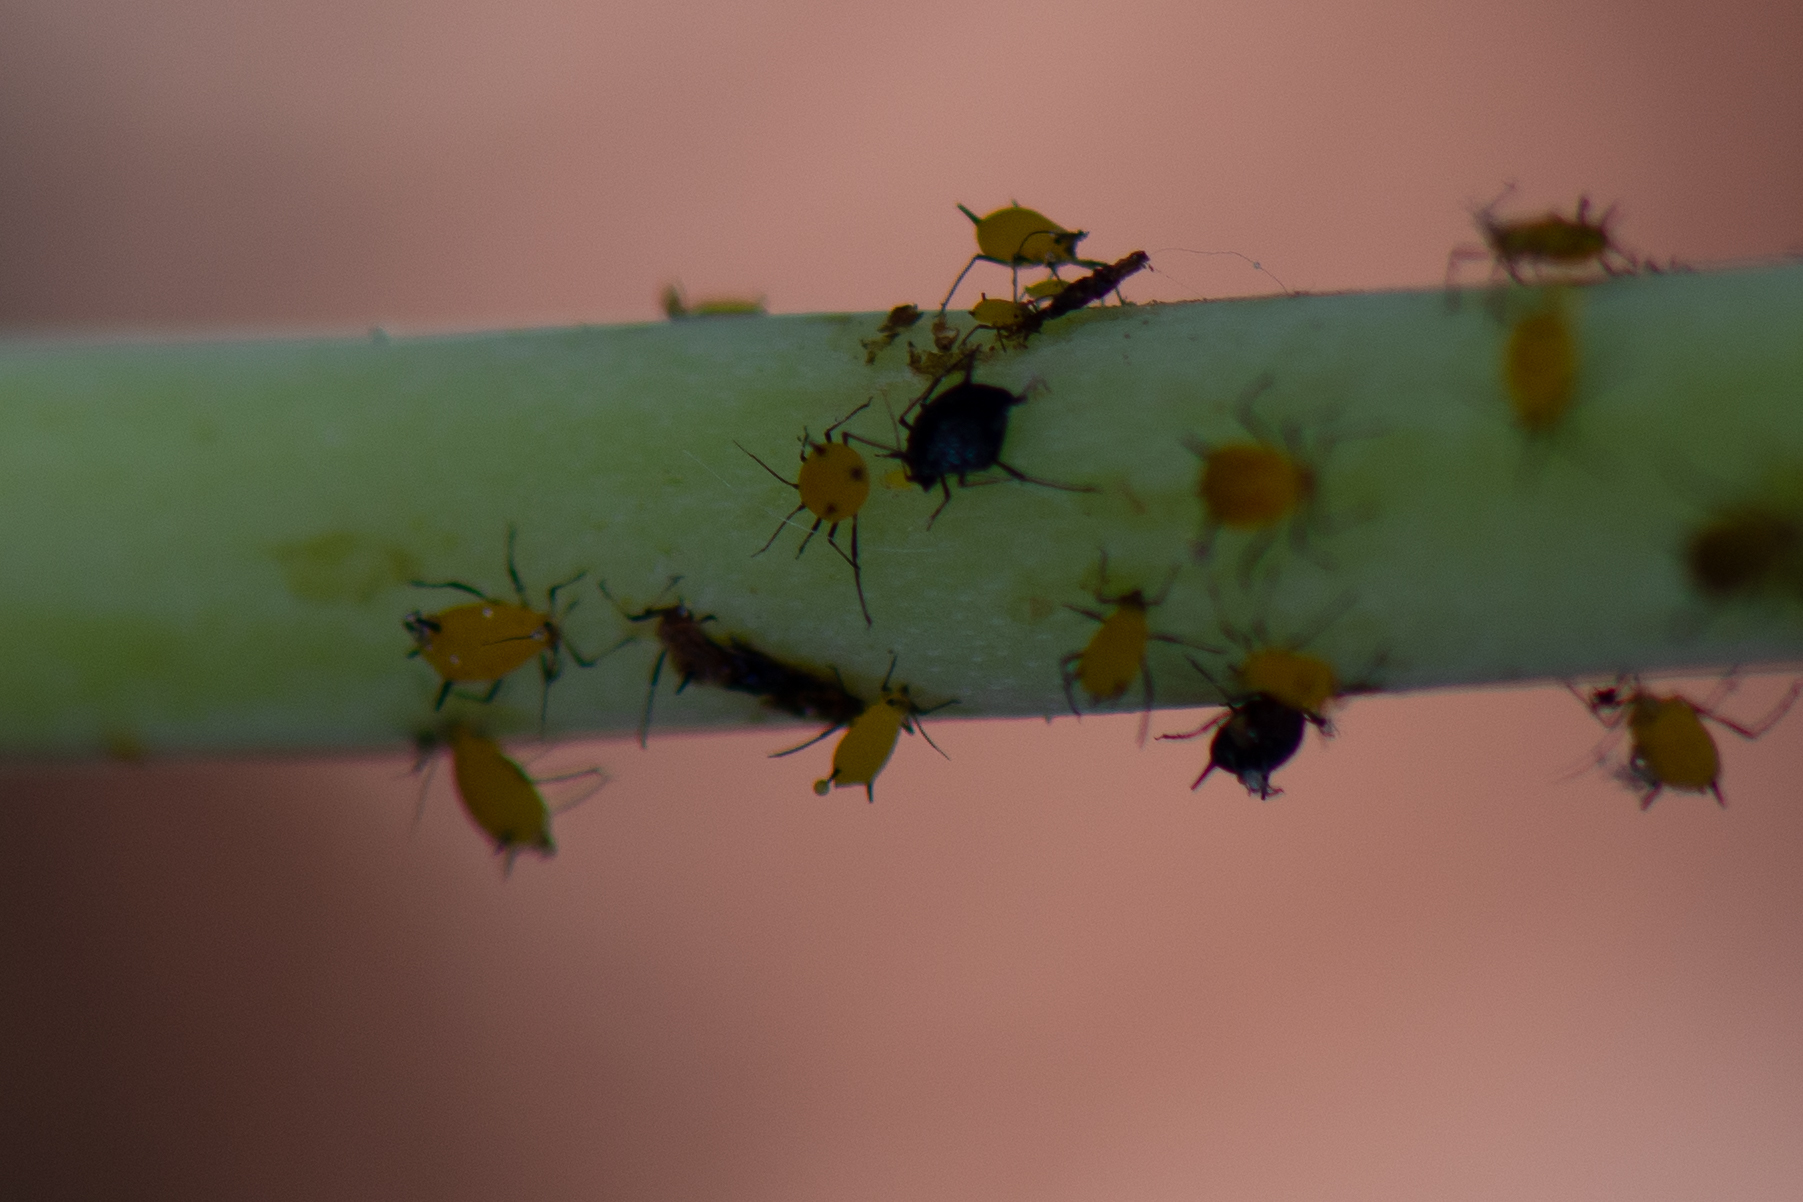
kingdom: Animalia
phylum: Arthropoda
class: Insecta
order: Hemiptera
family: Aphididae
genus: Aphis
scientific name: Aphis nerii
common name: Oleander aphid
